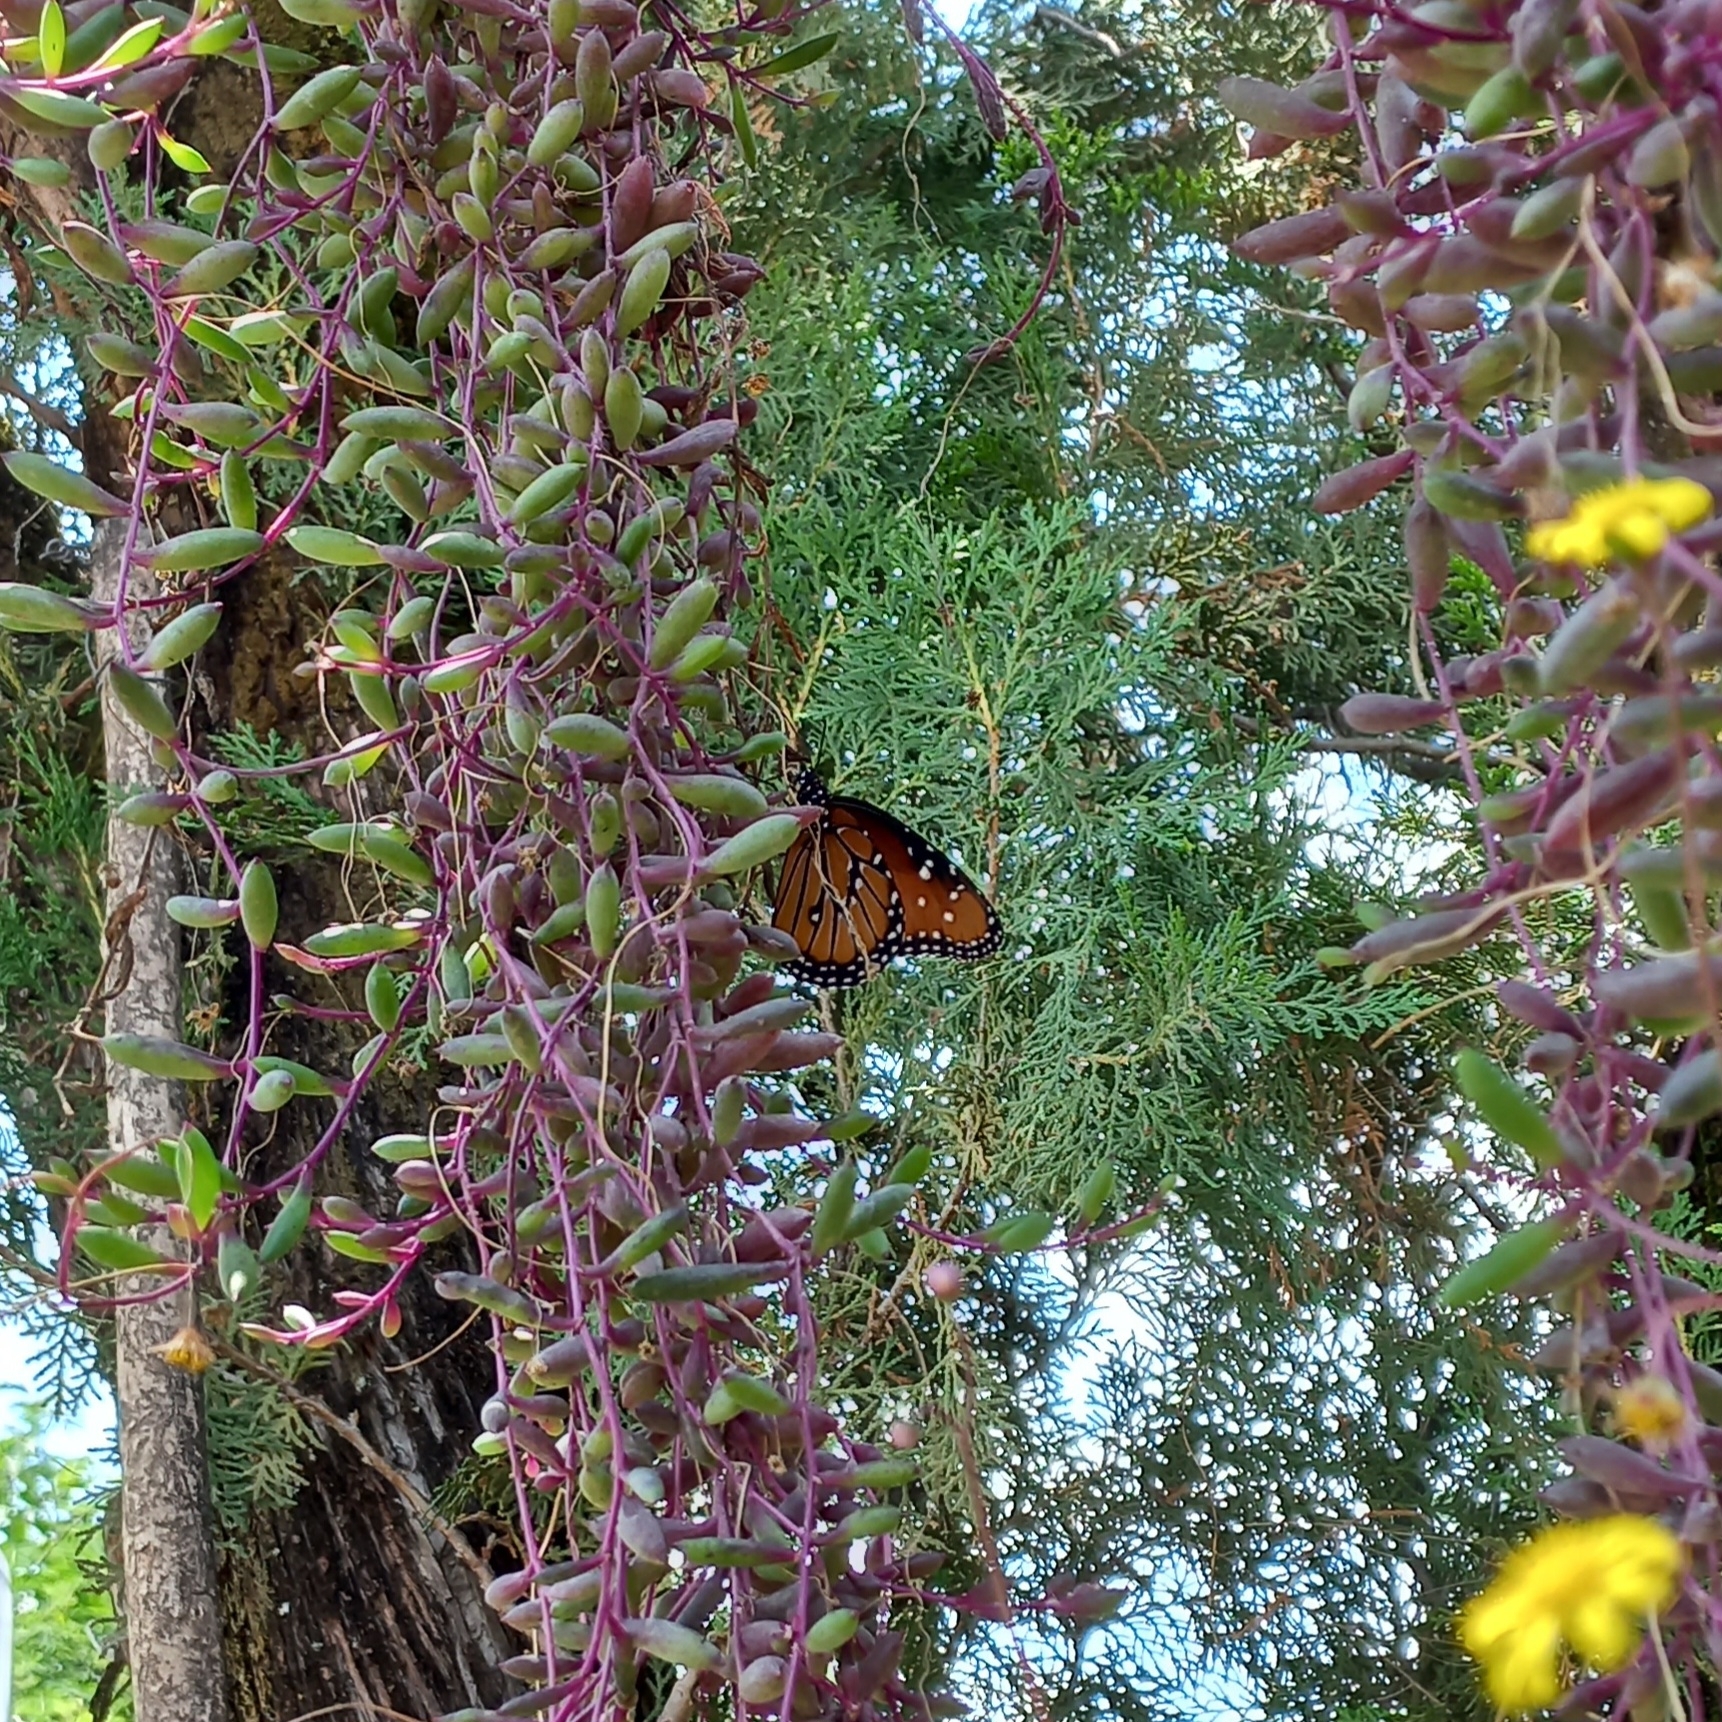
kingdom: Animalia
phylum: Arthropoda
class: Insecta
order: Lepidoptera
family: Nymphalidae
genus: Danaus
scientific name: Danaus gilippus
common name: Queen
